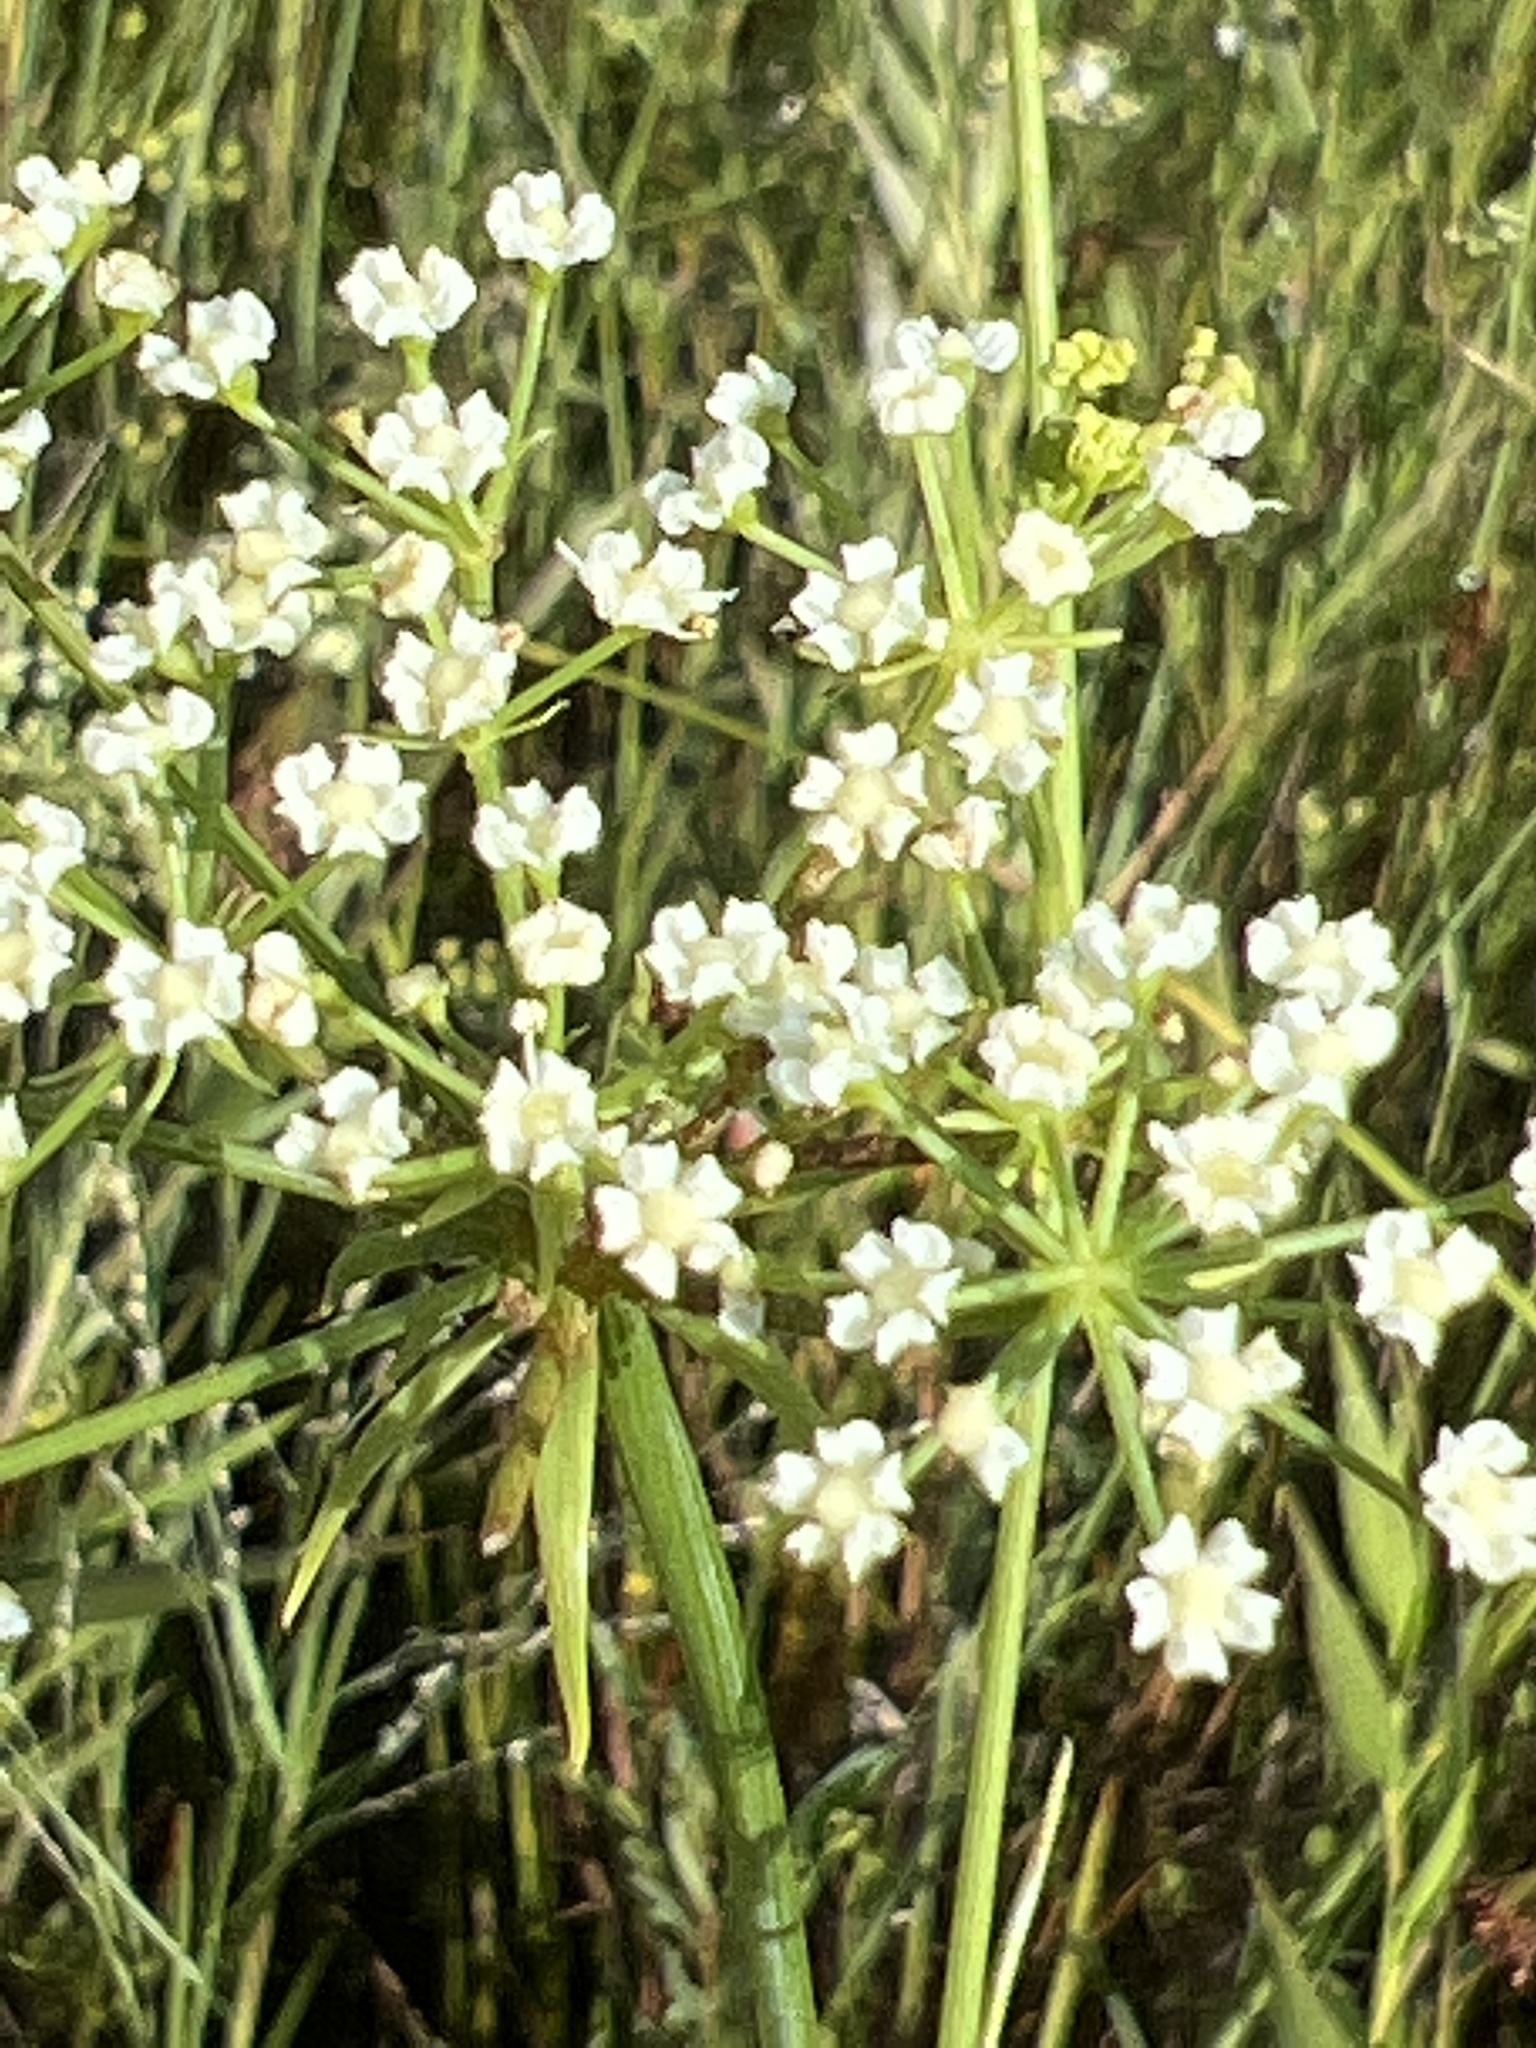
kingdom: Plantae
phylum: Tracheophyta
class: Magnoliopsida
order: Apiales
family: Apiaceae
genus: Tiedemannia
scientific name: Tiedemannia filiformis
